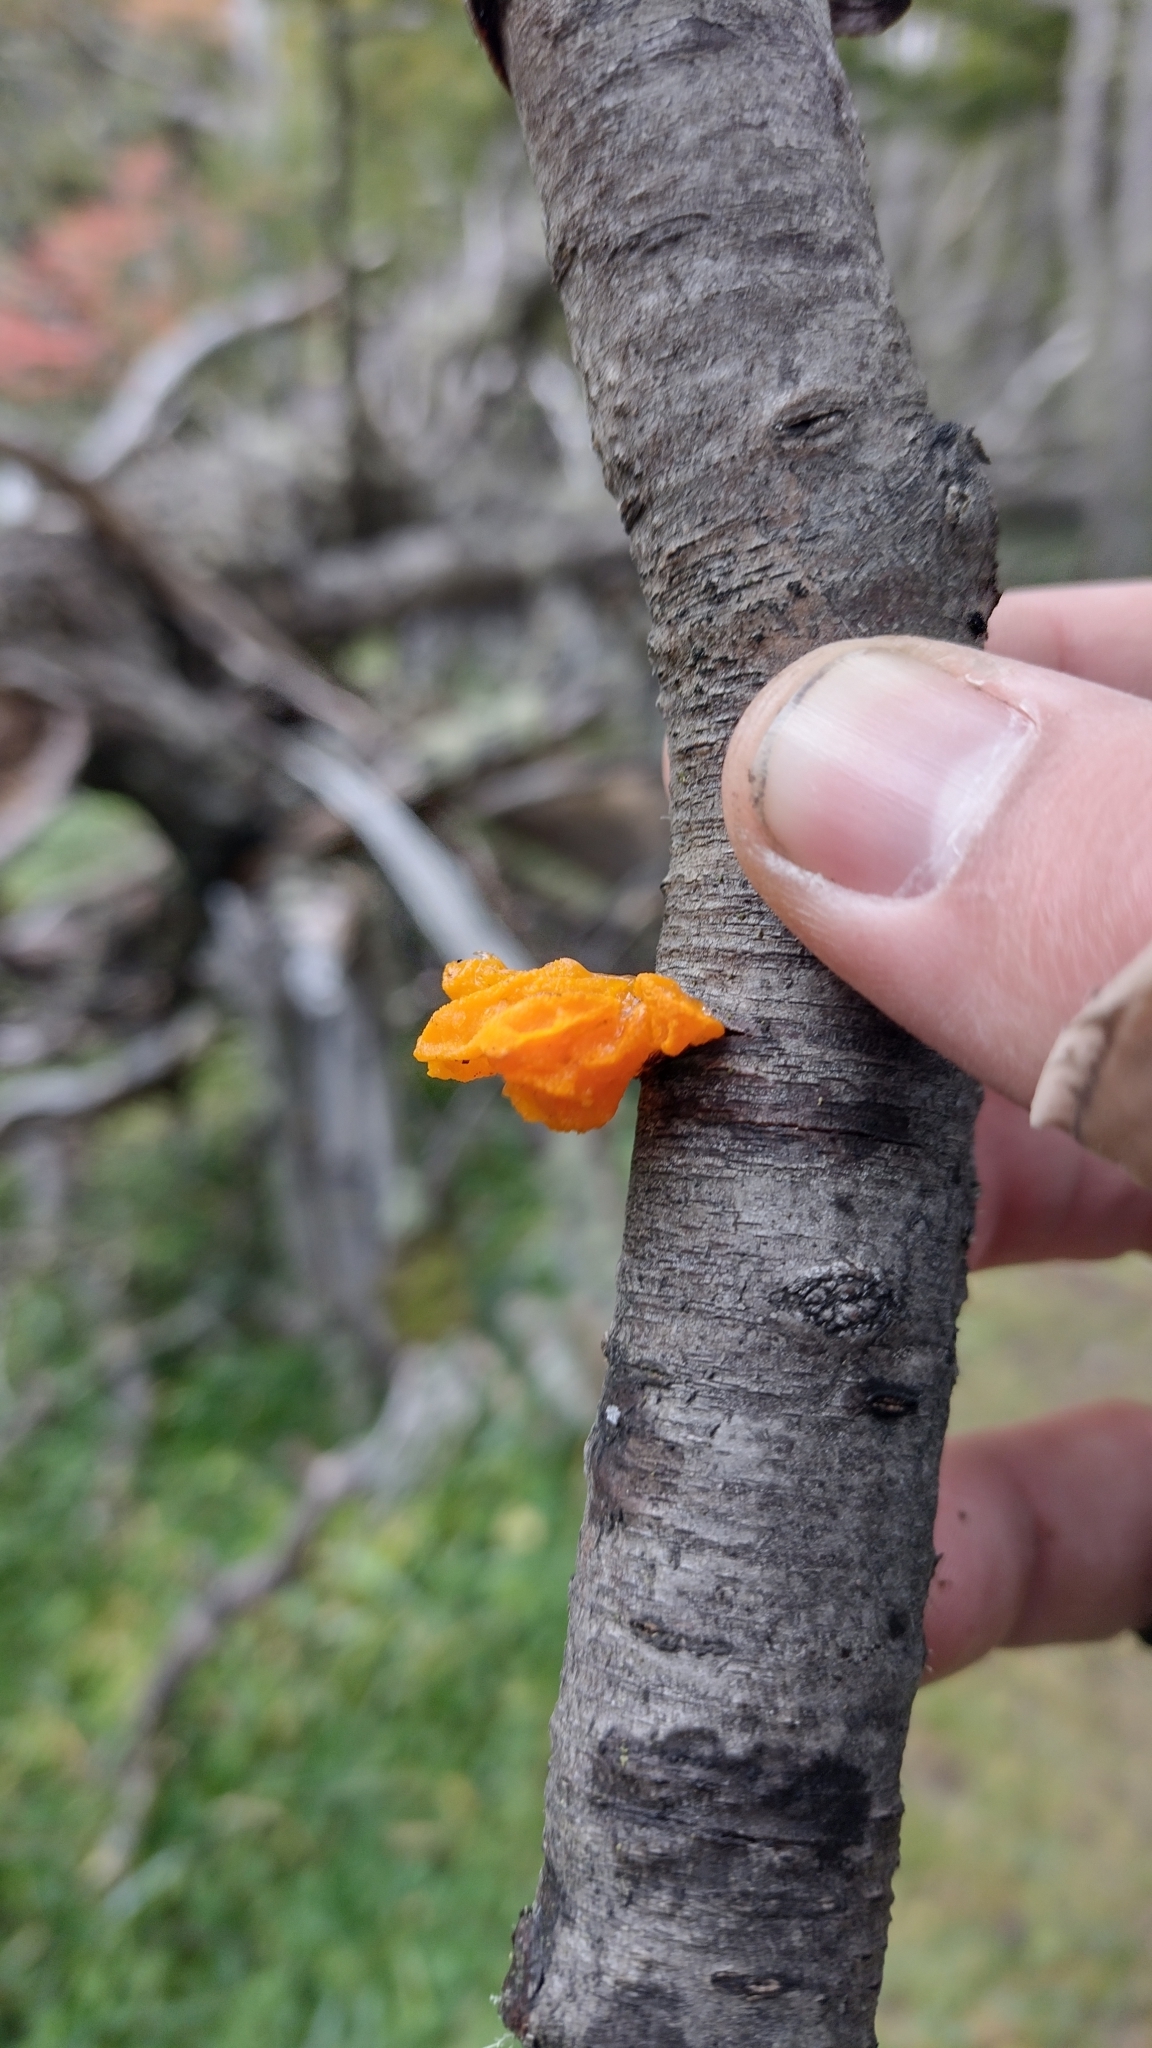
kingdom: Fungi
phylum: Basidiomycota
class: Tremellomycetes
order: Tremellales
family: Tremellaceae
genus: Tremella
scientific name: Tremella mesenterica
